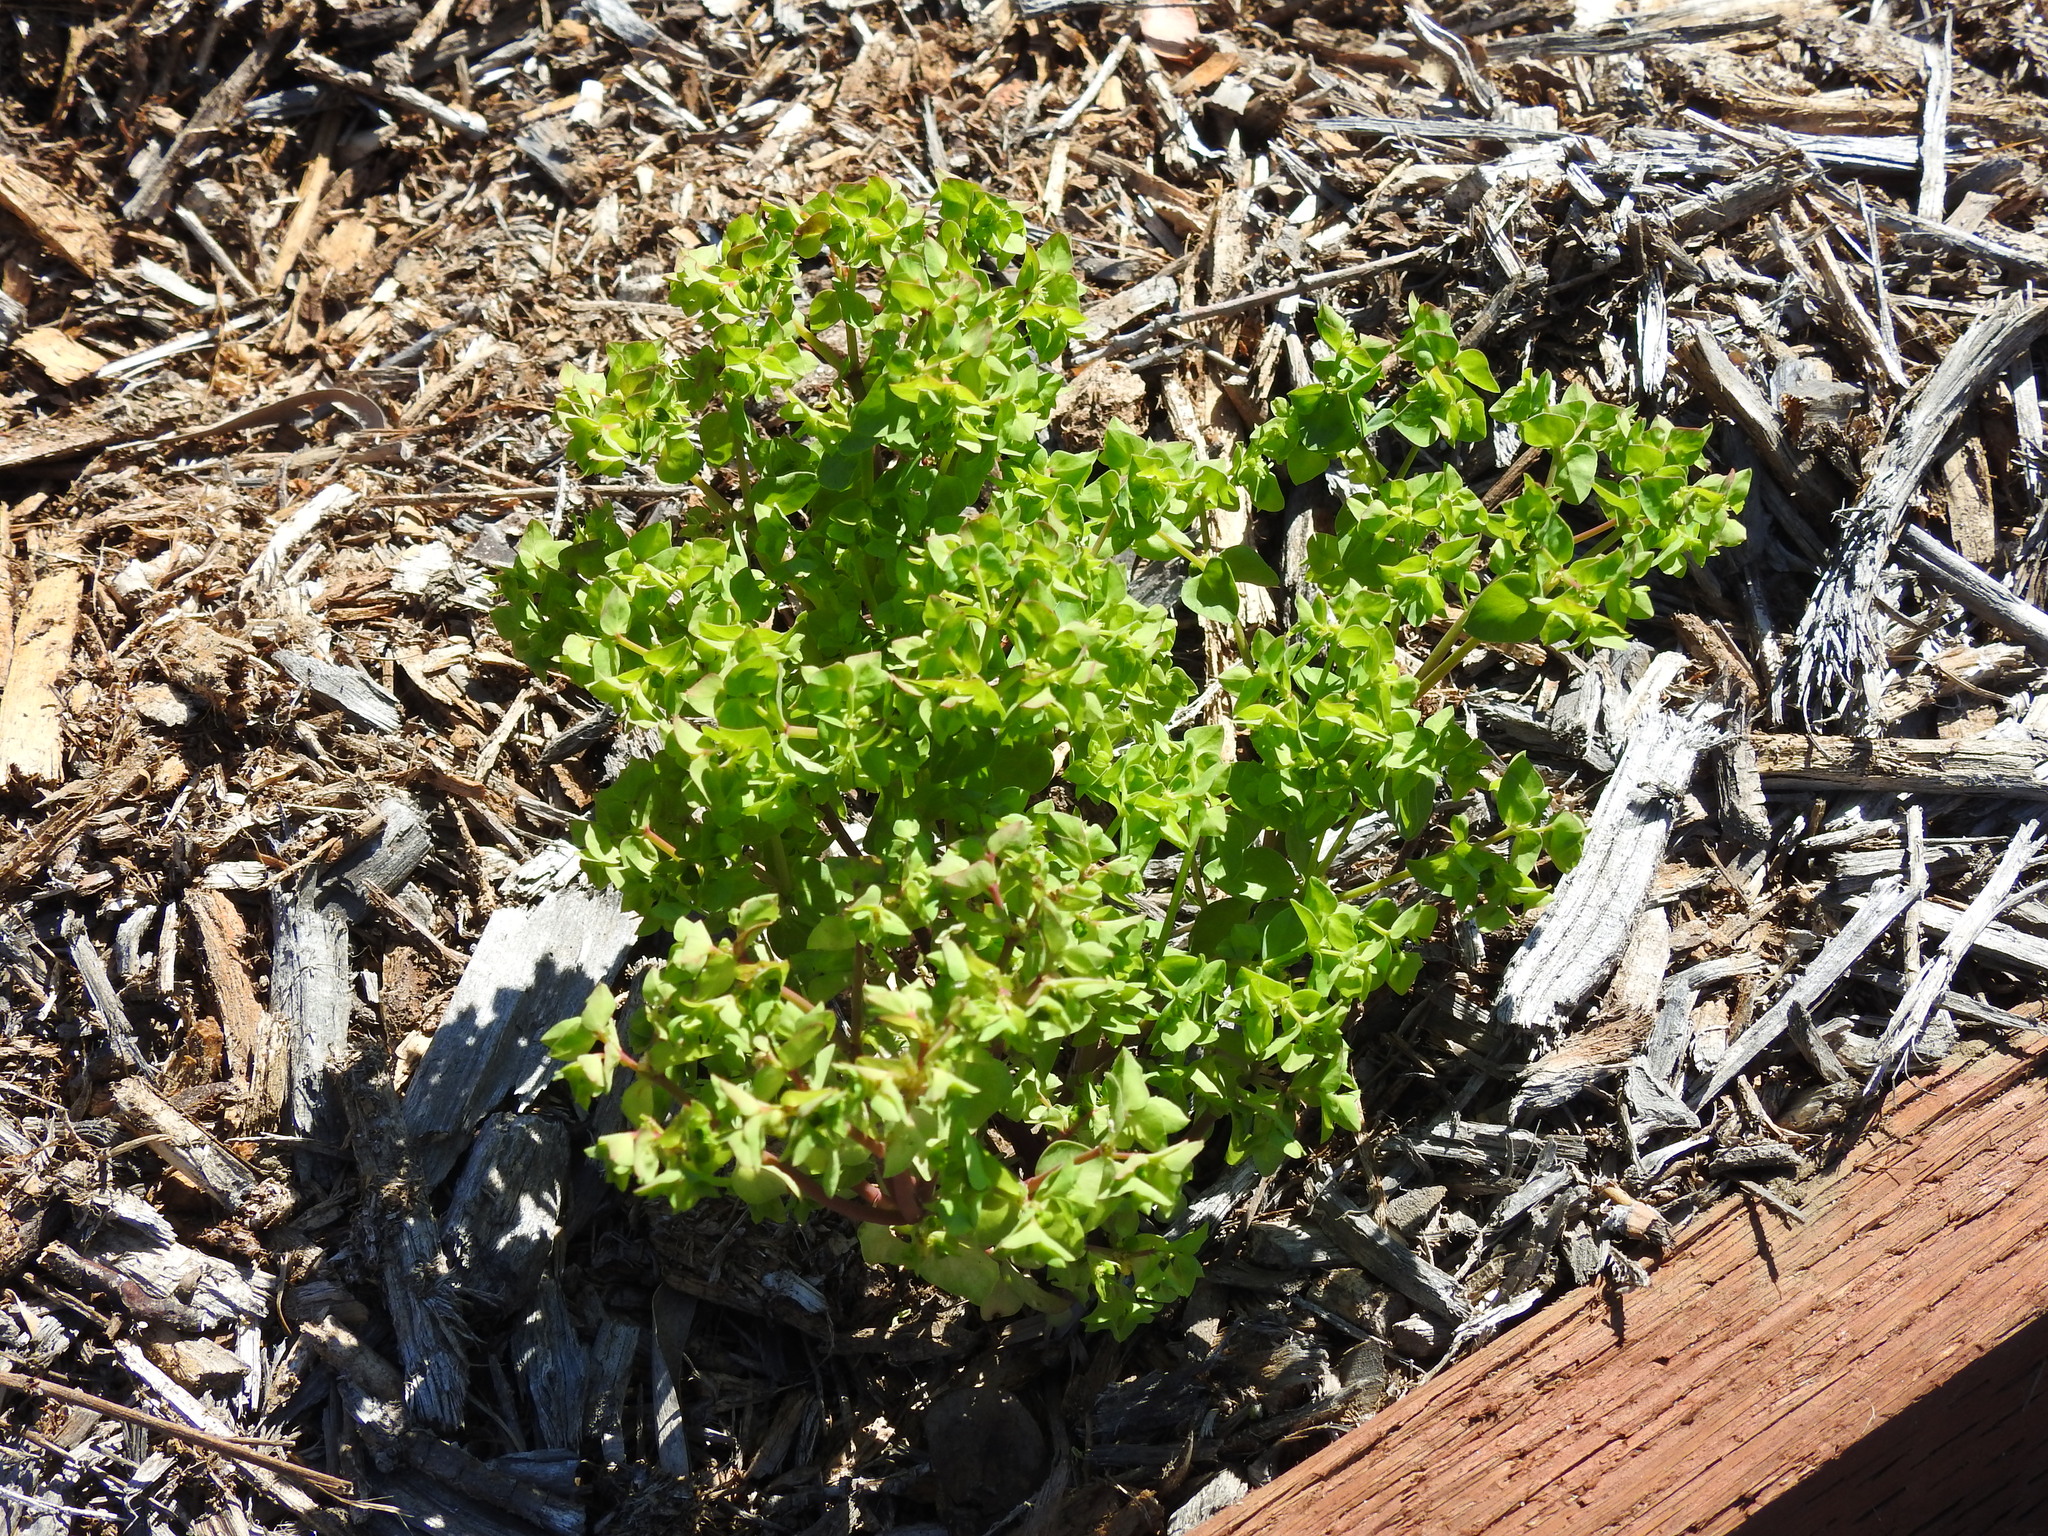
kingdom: Plantae
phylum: Tracheophyta
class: Magnoliopsida
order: Malpighiales
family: Euphorbiaceae
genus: Euphorbia
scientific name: Euphorbia peplus
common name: Petty spurge
